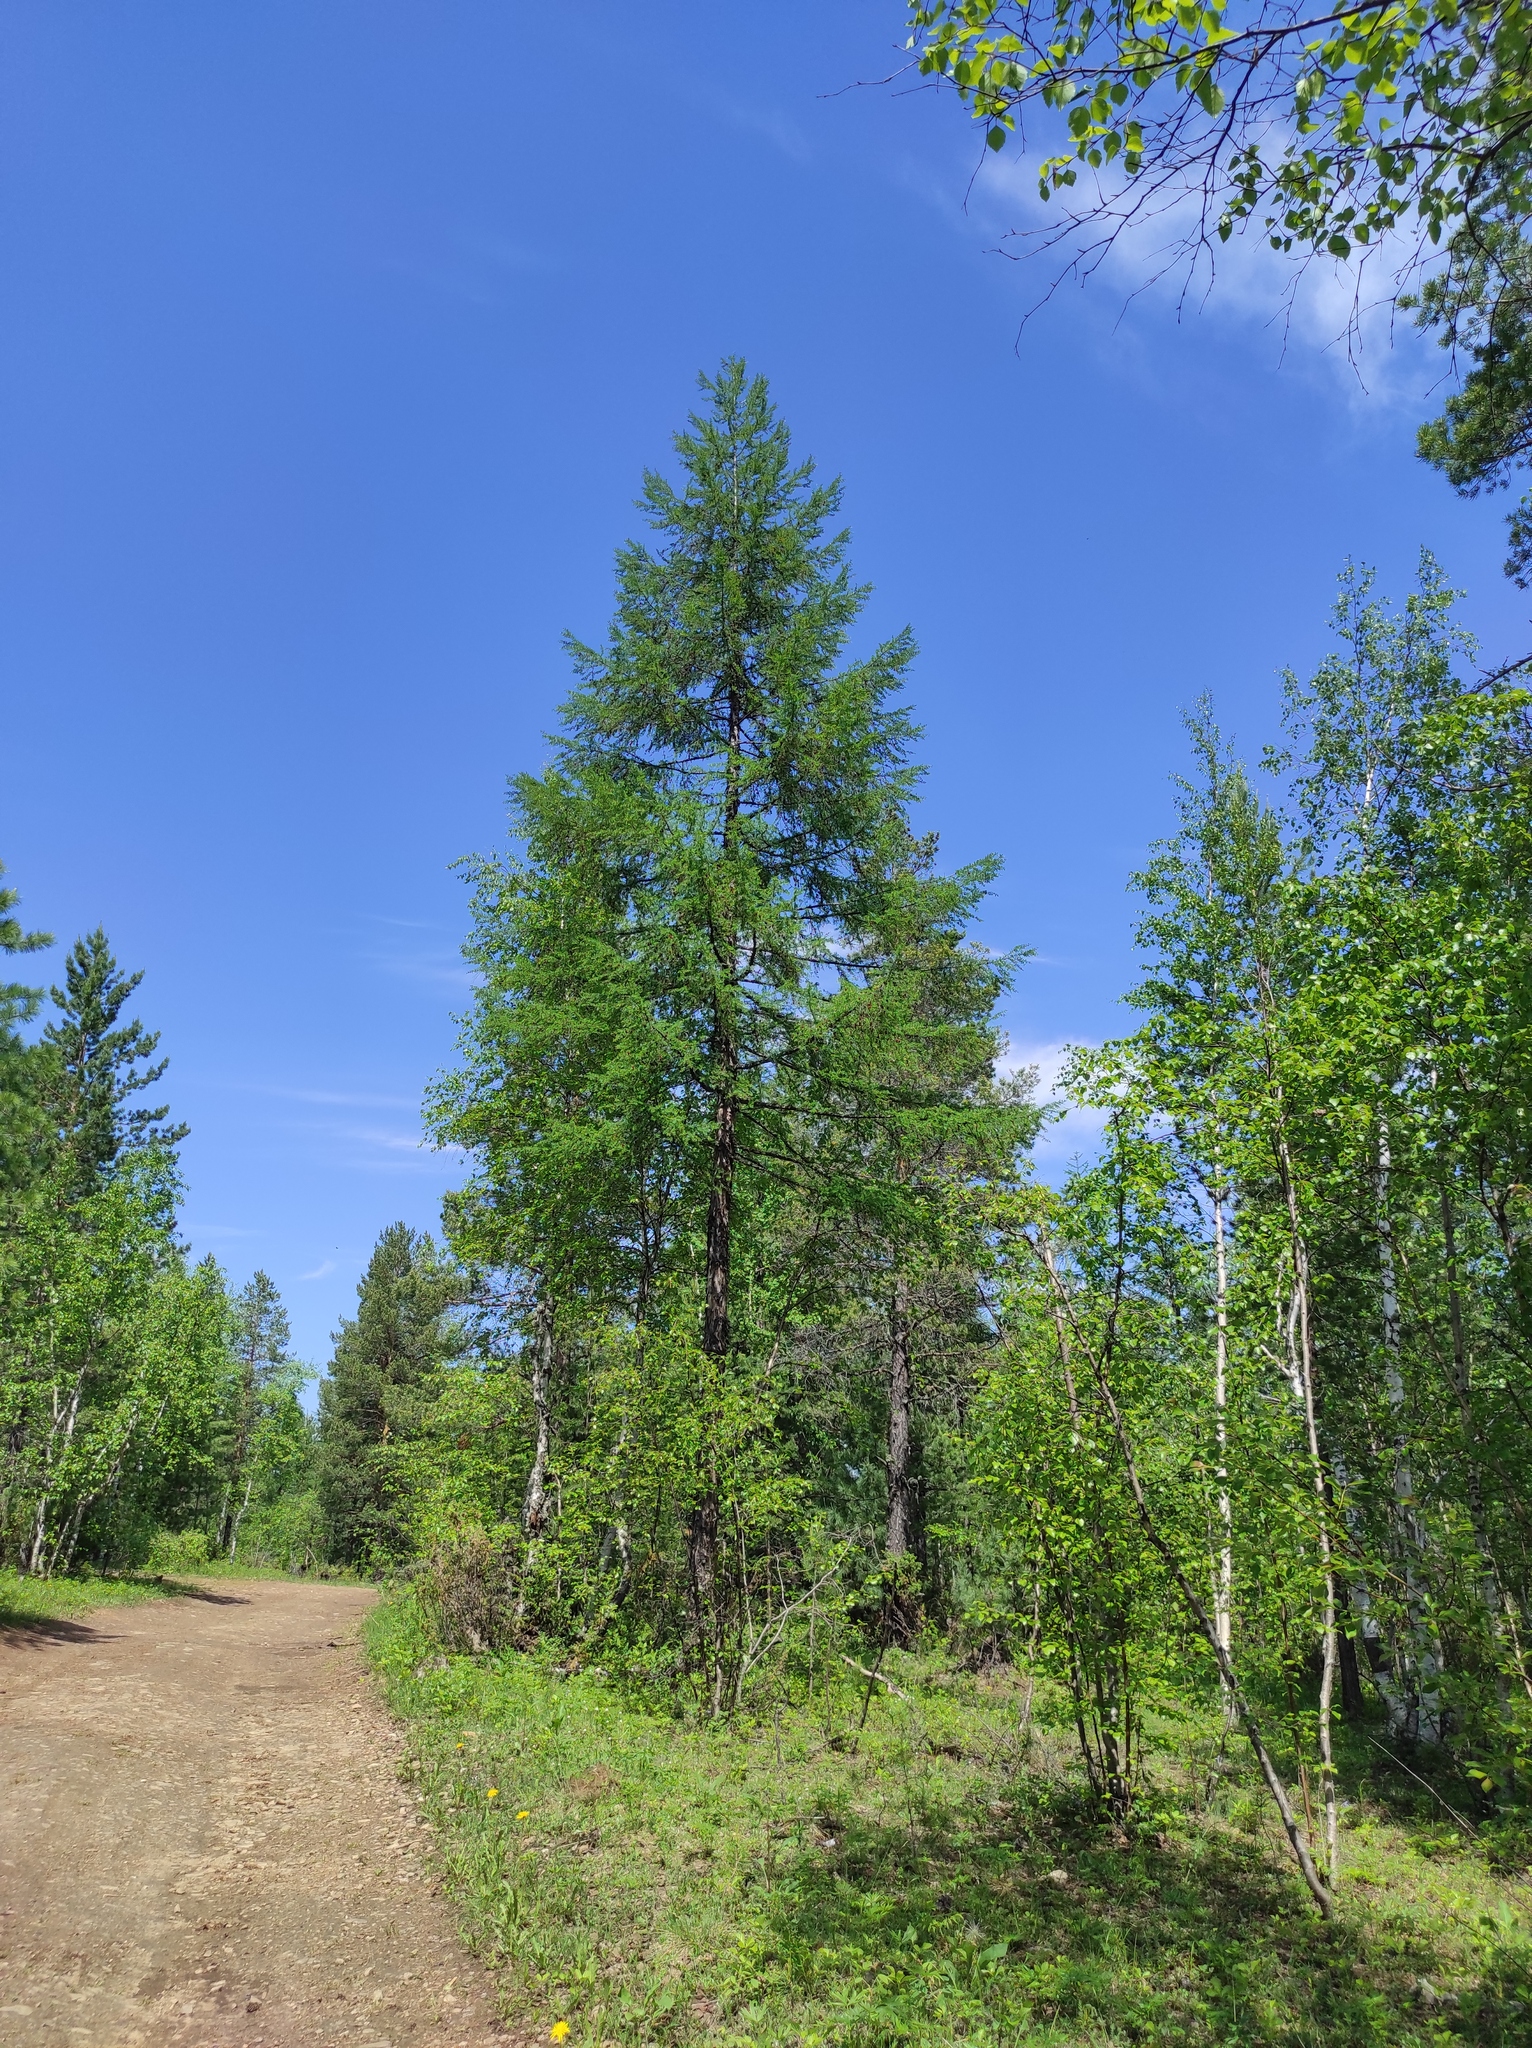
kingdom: Plantae
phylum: Tracheophyta
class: Pinopsida
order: Pinales
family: Pinaceae
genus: Larix
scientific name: Larix gmelinii
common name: Dahurian larch
